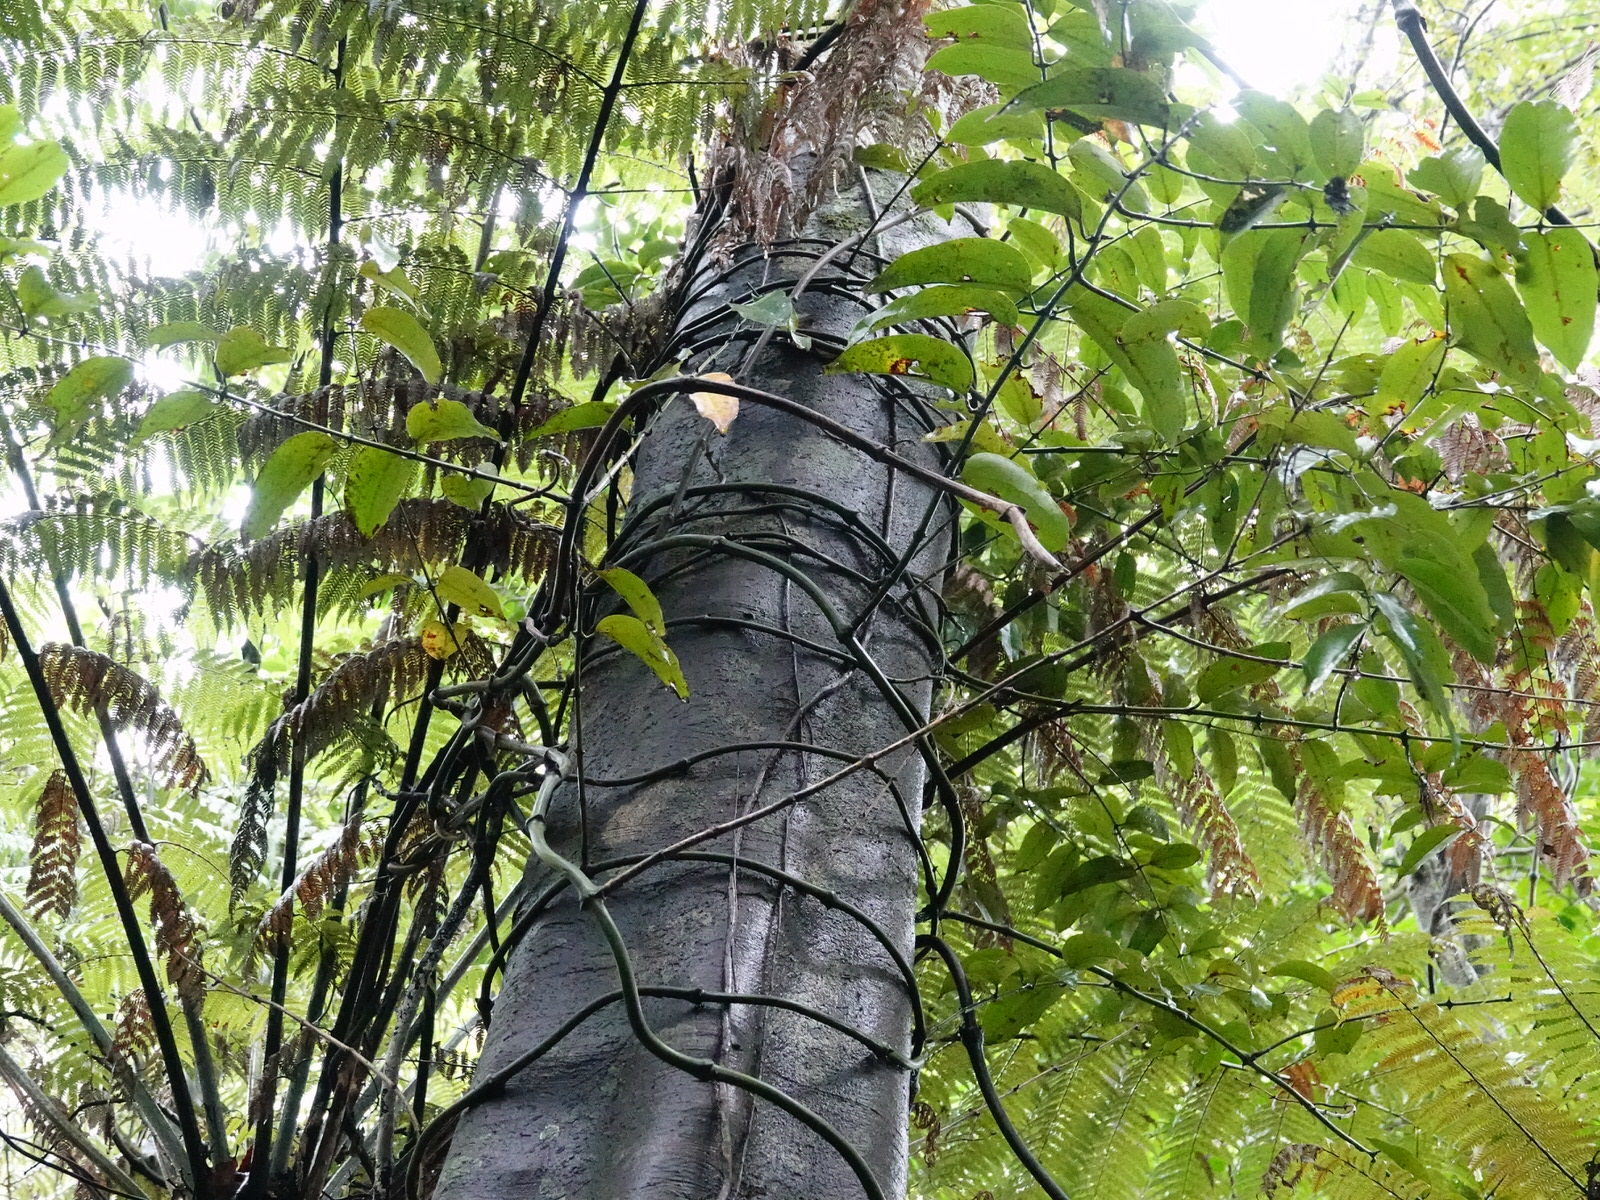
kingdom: Plantae
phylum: Tracheophyta
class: Liliopsida
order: Liliales
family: Ripogonaceae
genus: Ripogonum
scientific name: Ripogonum scandens
